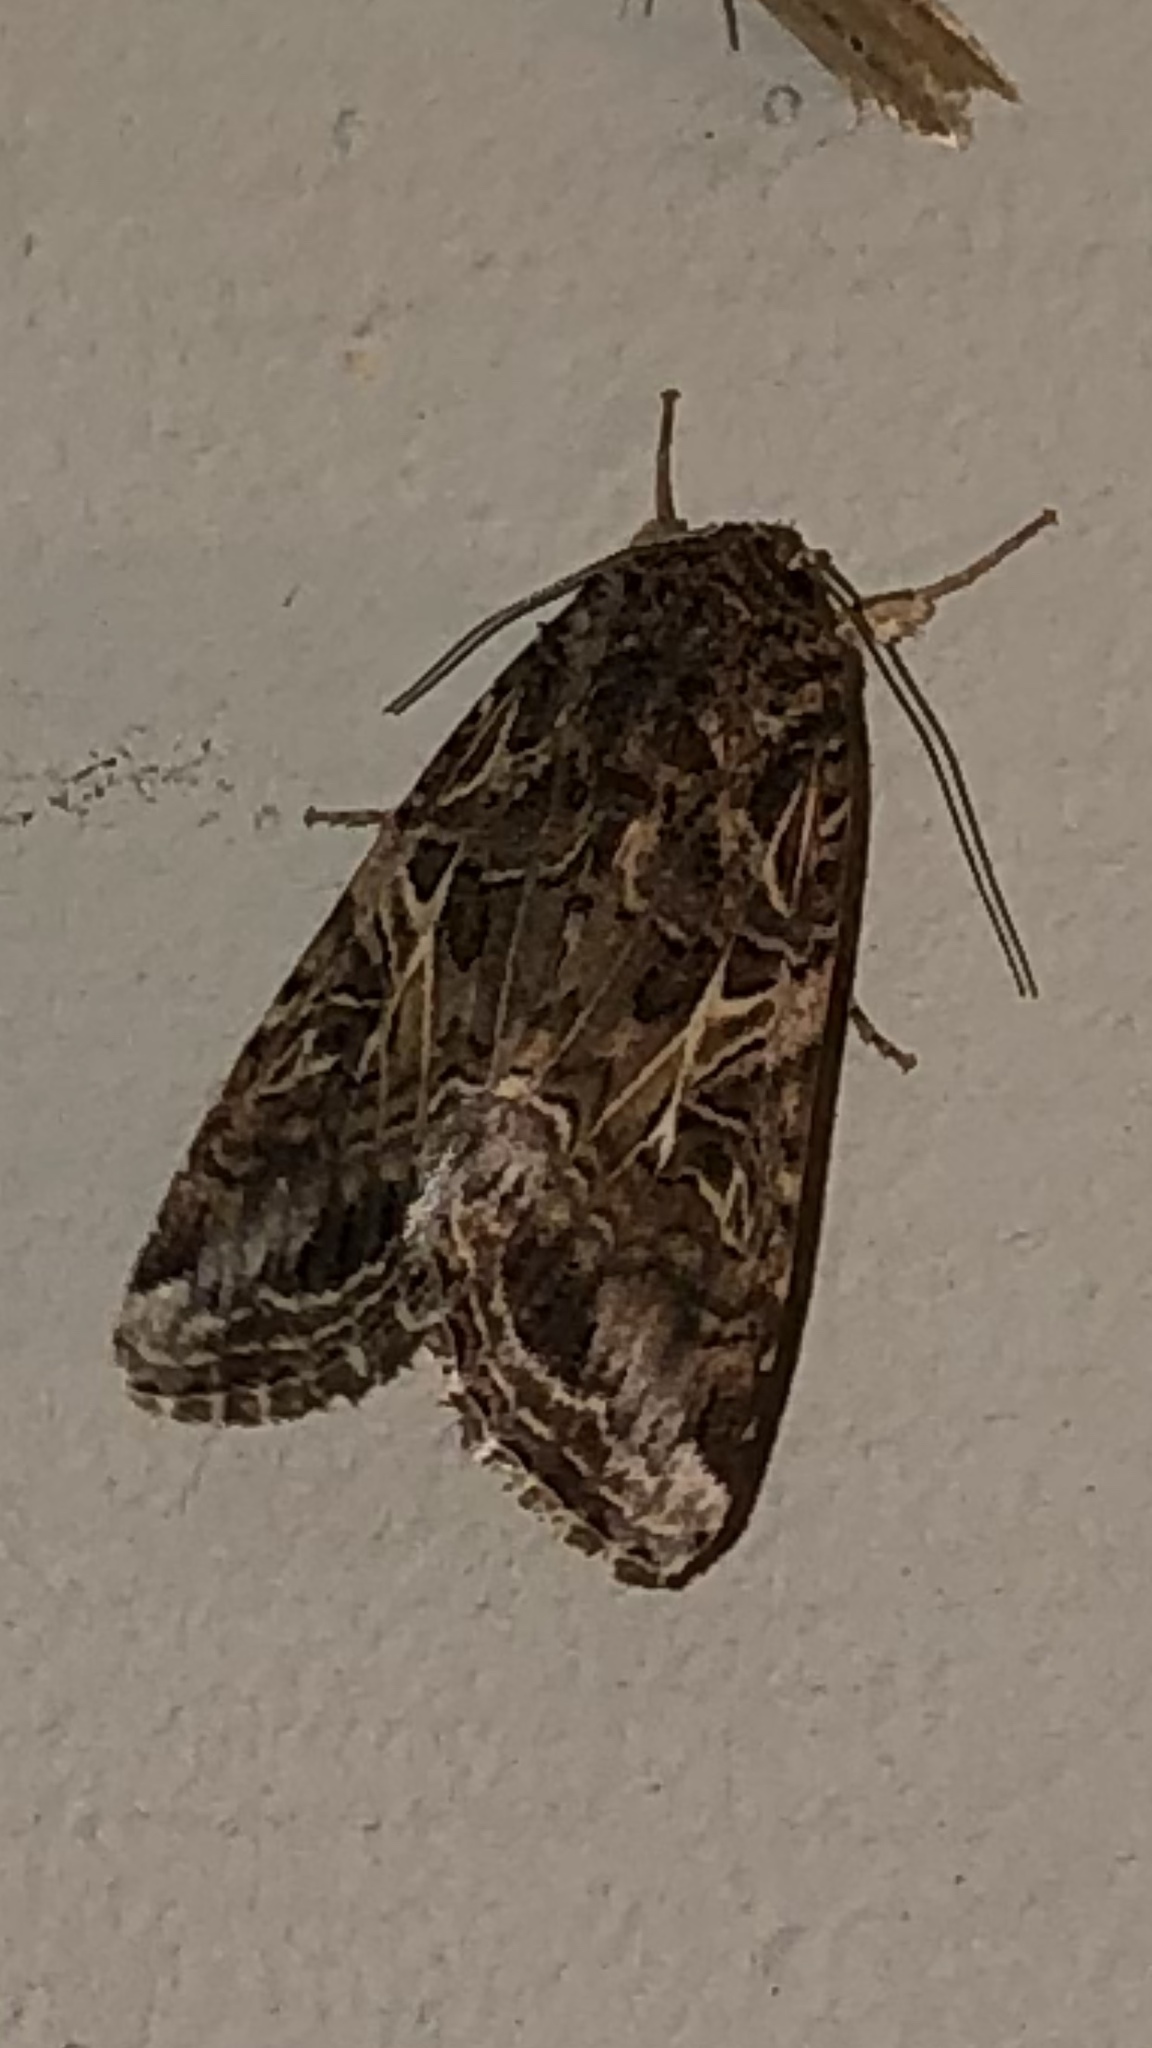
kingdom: Animalia
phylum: Arthropoda
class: Insecta
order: Lepidoptera
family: Noctuidae
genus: Spodoptera
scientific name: Spodoptera ornithogalli
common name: Yellow-striped armyworm
